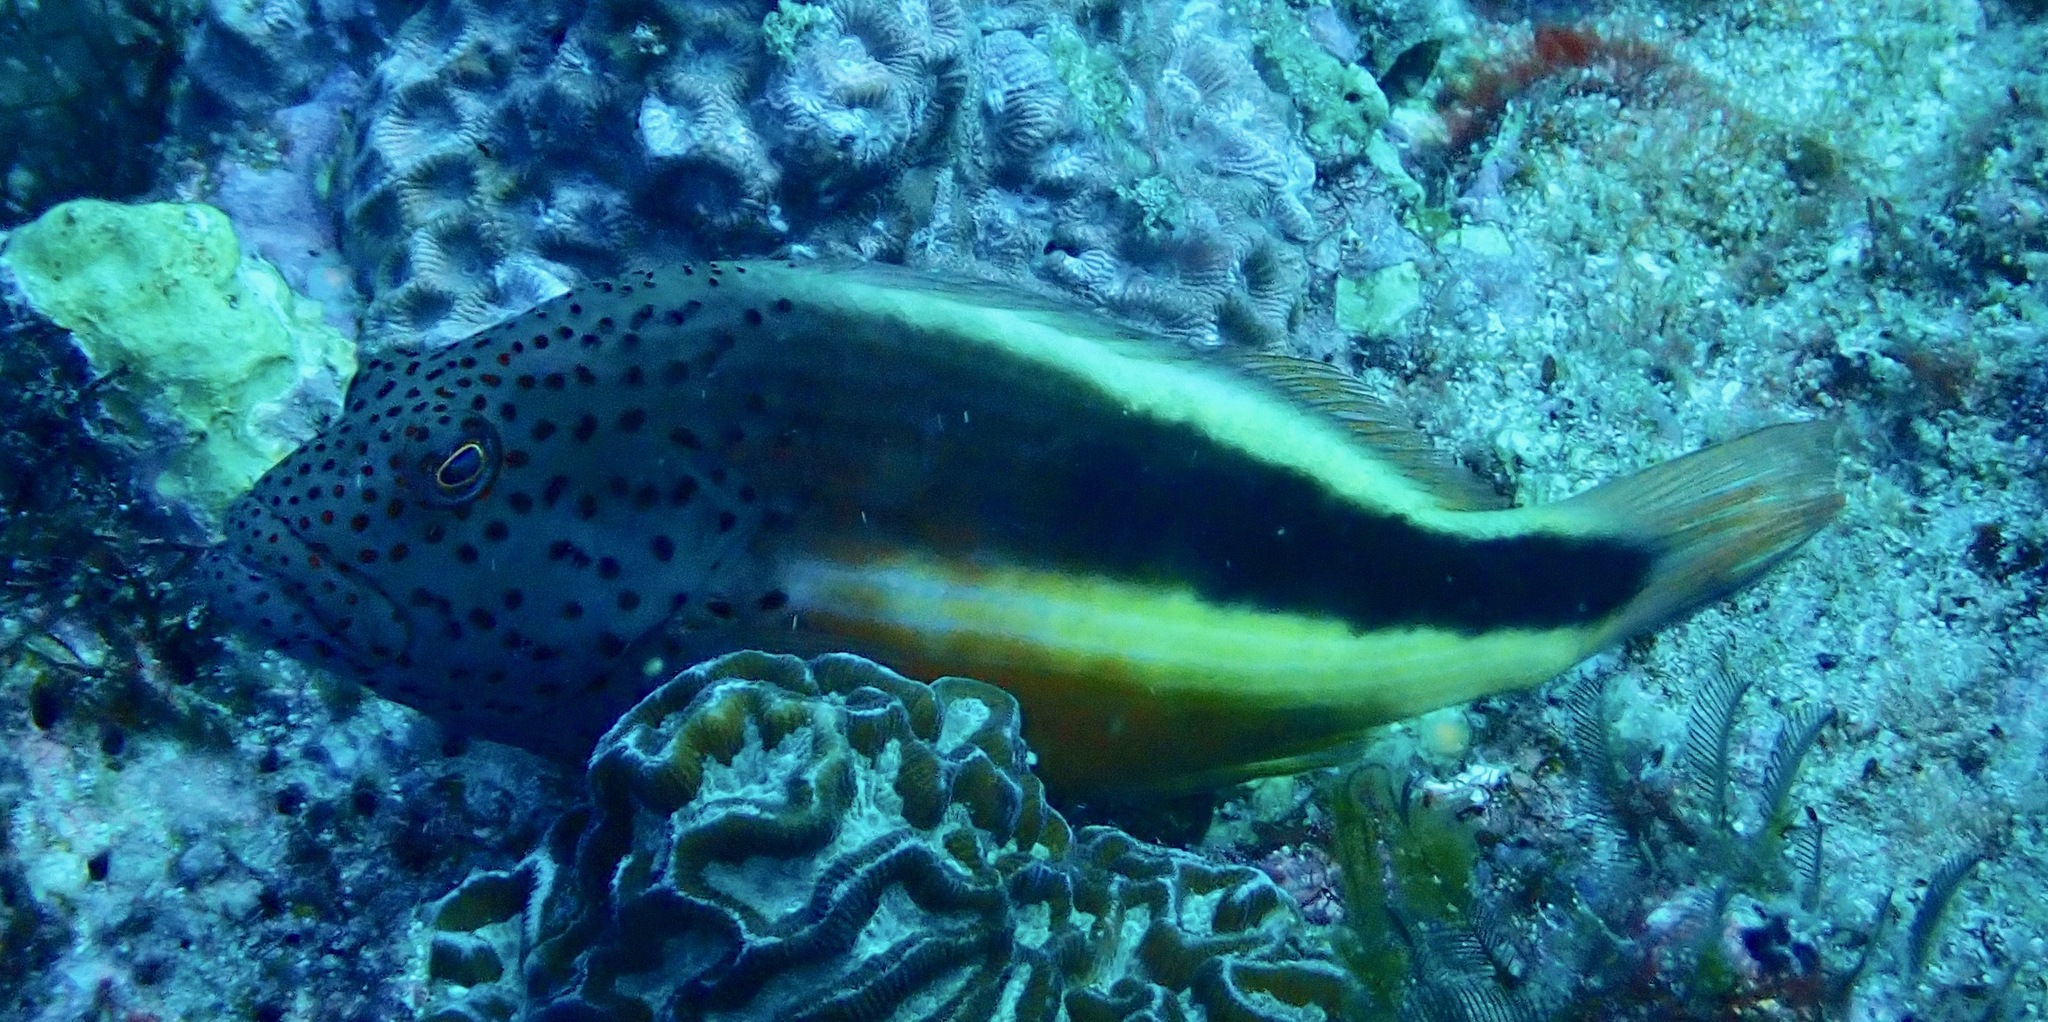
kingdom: Animalia
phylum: Chordata
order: Perciformes
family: Cirrhitidae
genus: Paracirrhites
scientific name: Paracirrhites forsteri
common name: Freckled hawkfish
